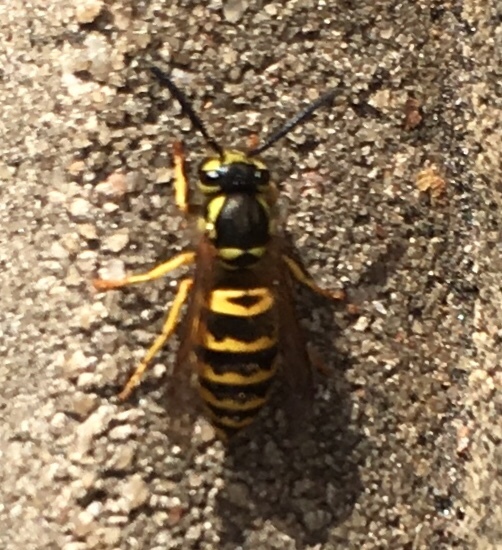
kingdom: Animalia
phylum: Arthropoda
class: Insecta
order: Hymenoptera
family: Vespidae
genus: Vespula
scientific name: Vespula maculifrons
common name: Eastern yellowjacket
